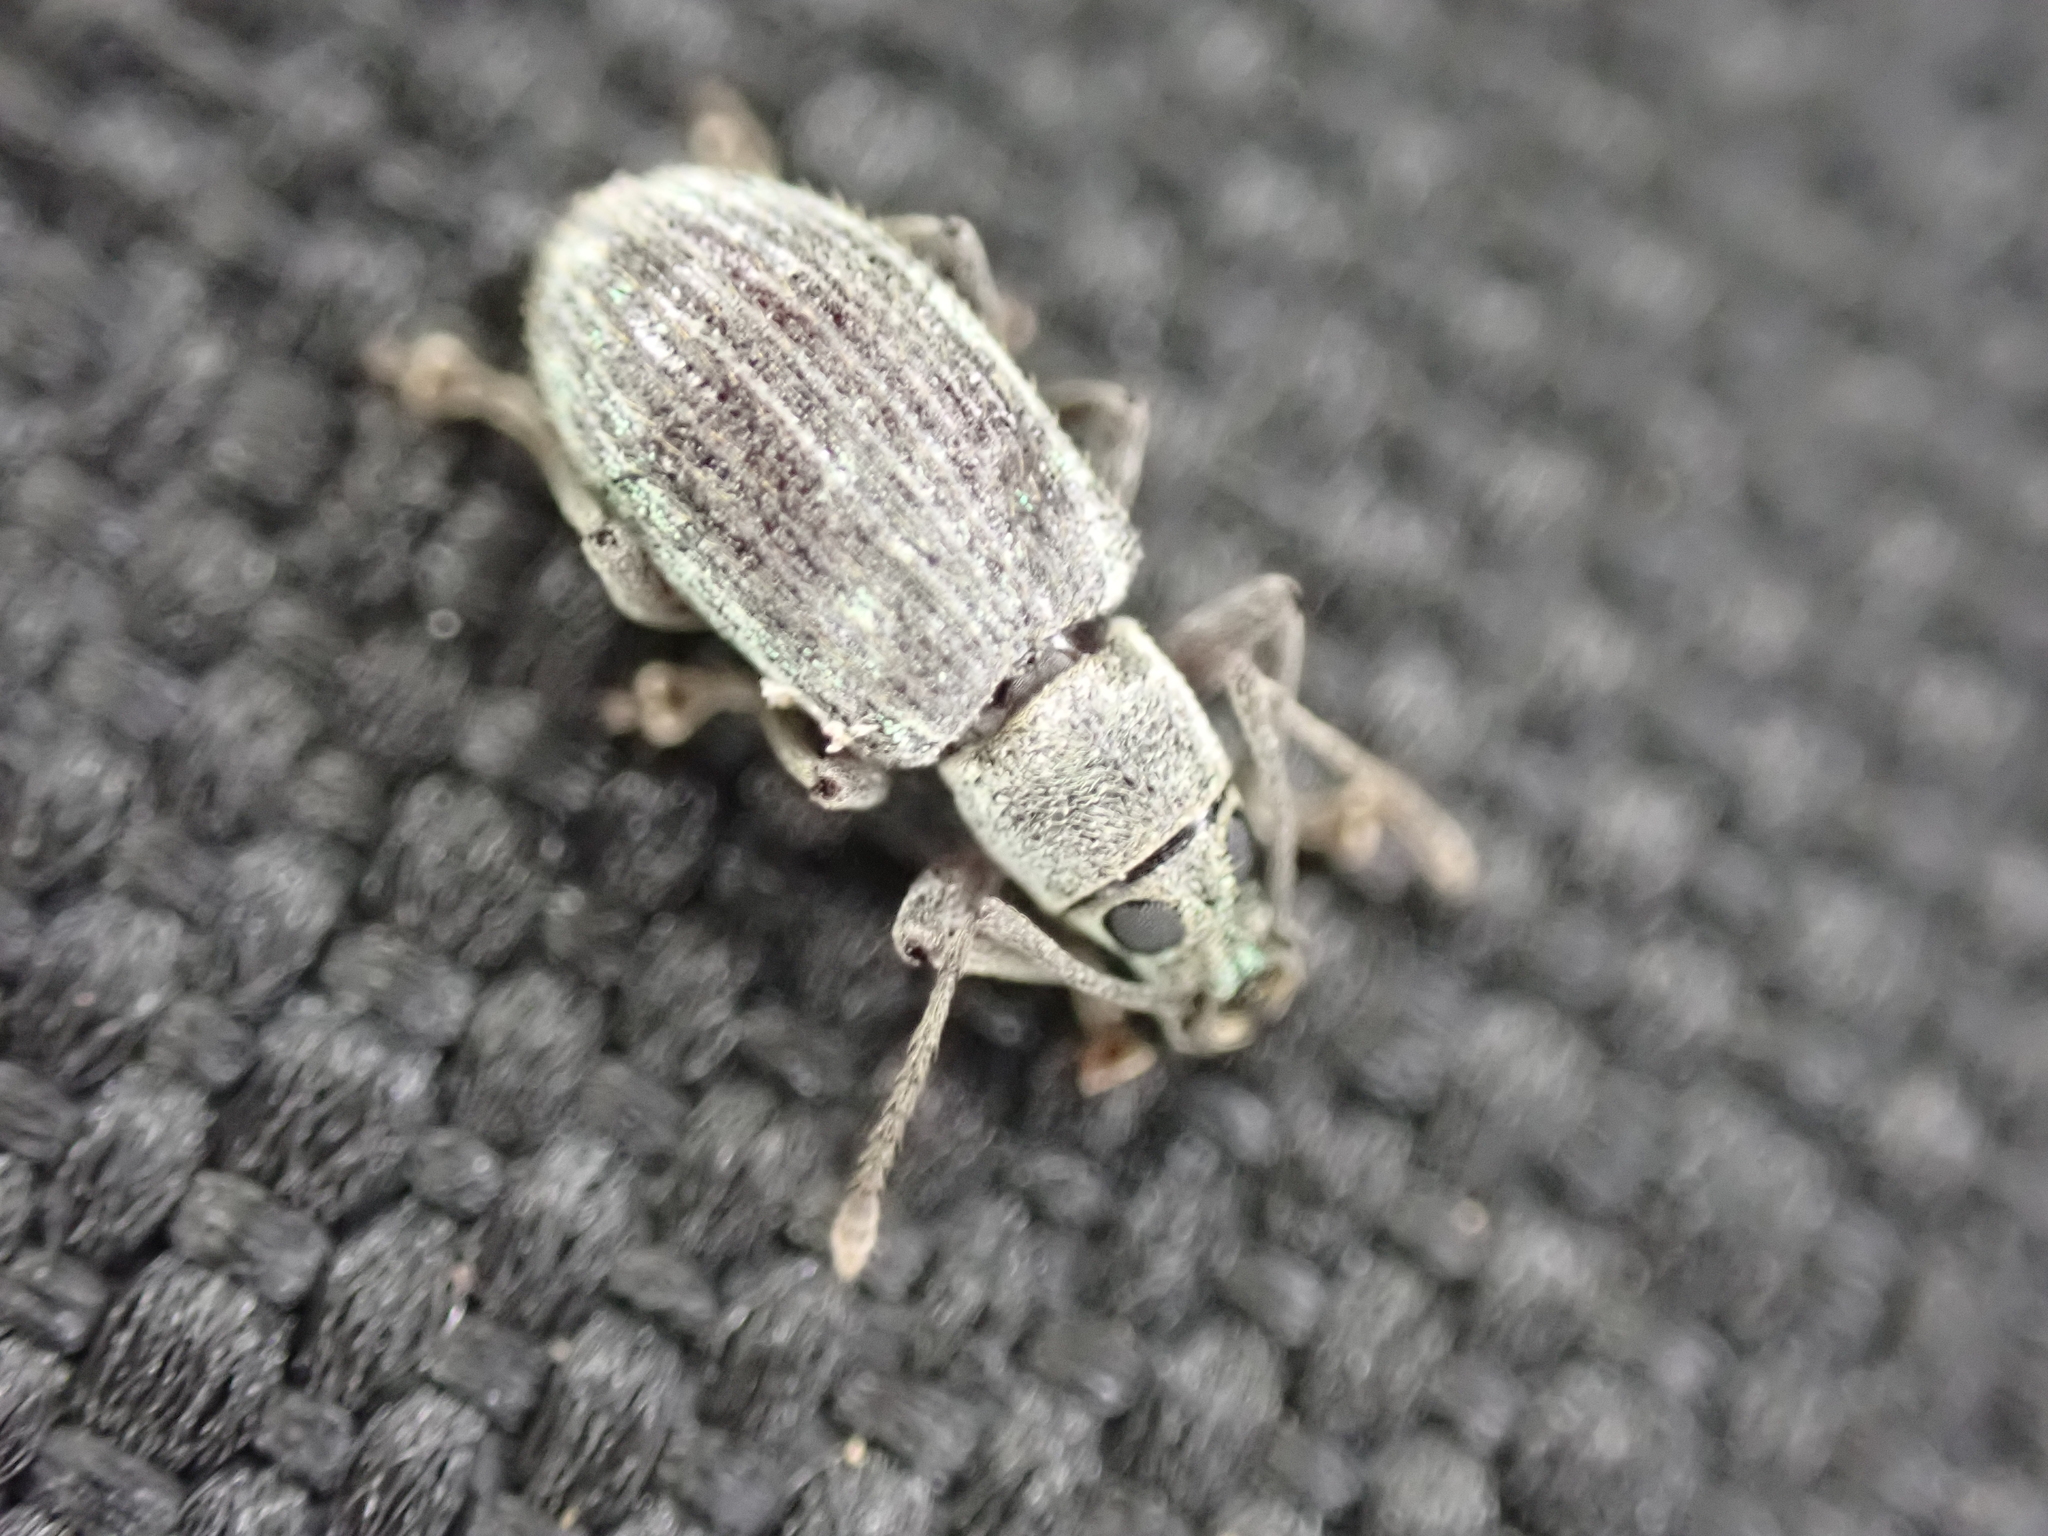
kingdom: Animalia
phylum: Arthropoda
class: Insecta
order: Coleoptera
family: Curculionidae
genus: Cyrtepistomus
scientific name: Cyrtepistomus castaneus
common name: Weevil
